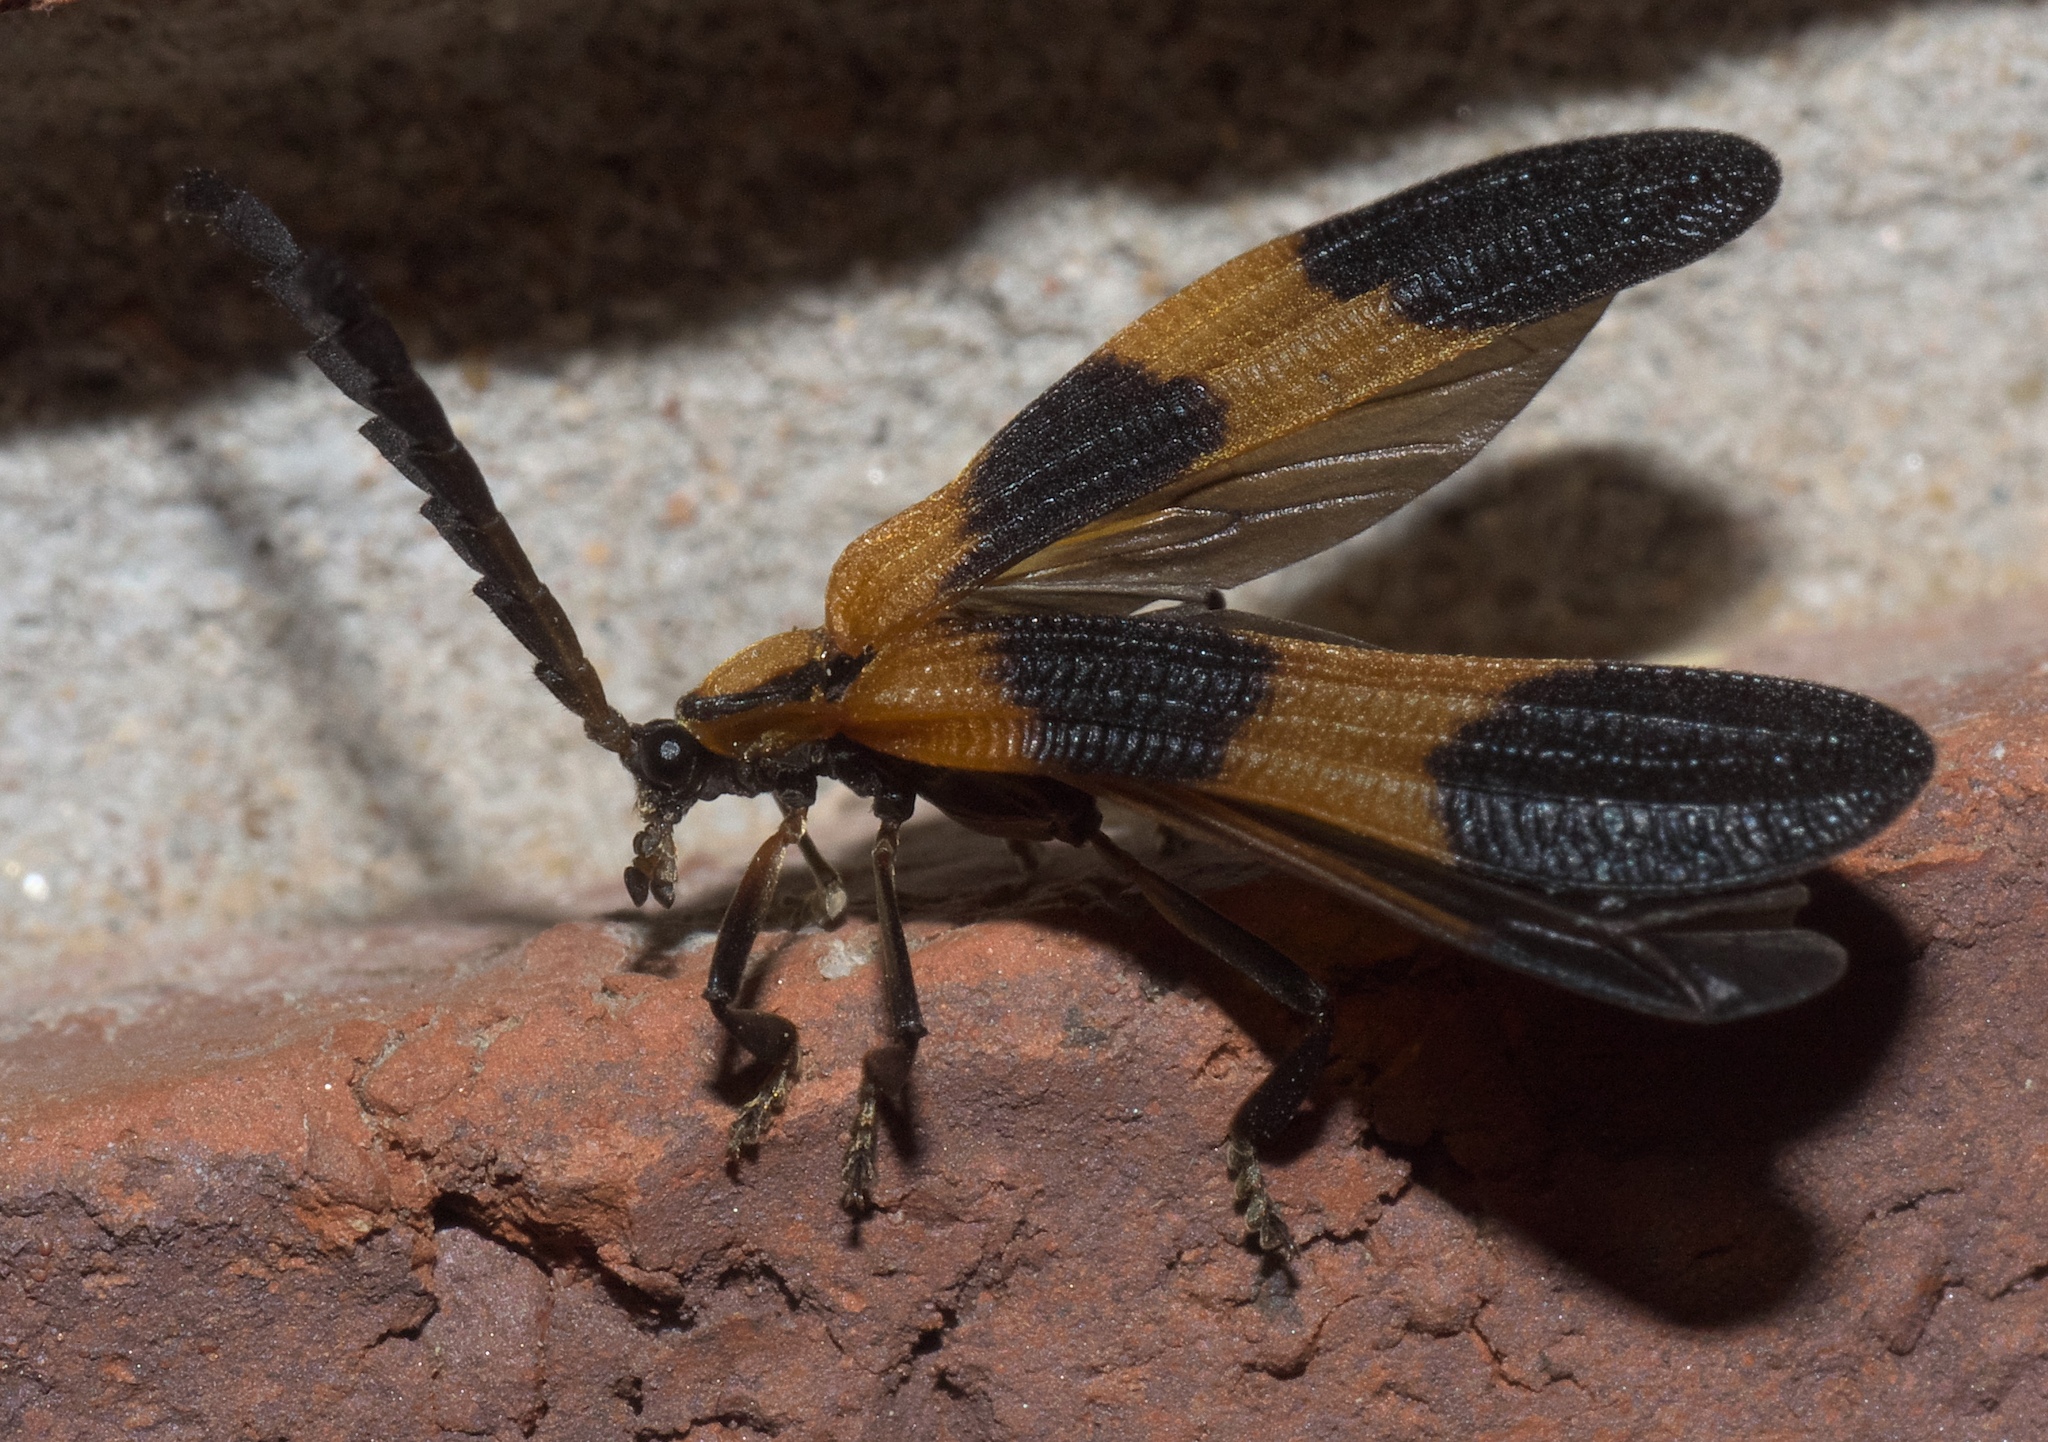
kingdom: Animalia
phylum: Arthropoda
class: Insecta
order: Coleoptera
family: Lycidae
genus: Calopteron
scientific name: Calopteron reticulatum
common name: Banded net-winged beetle
